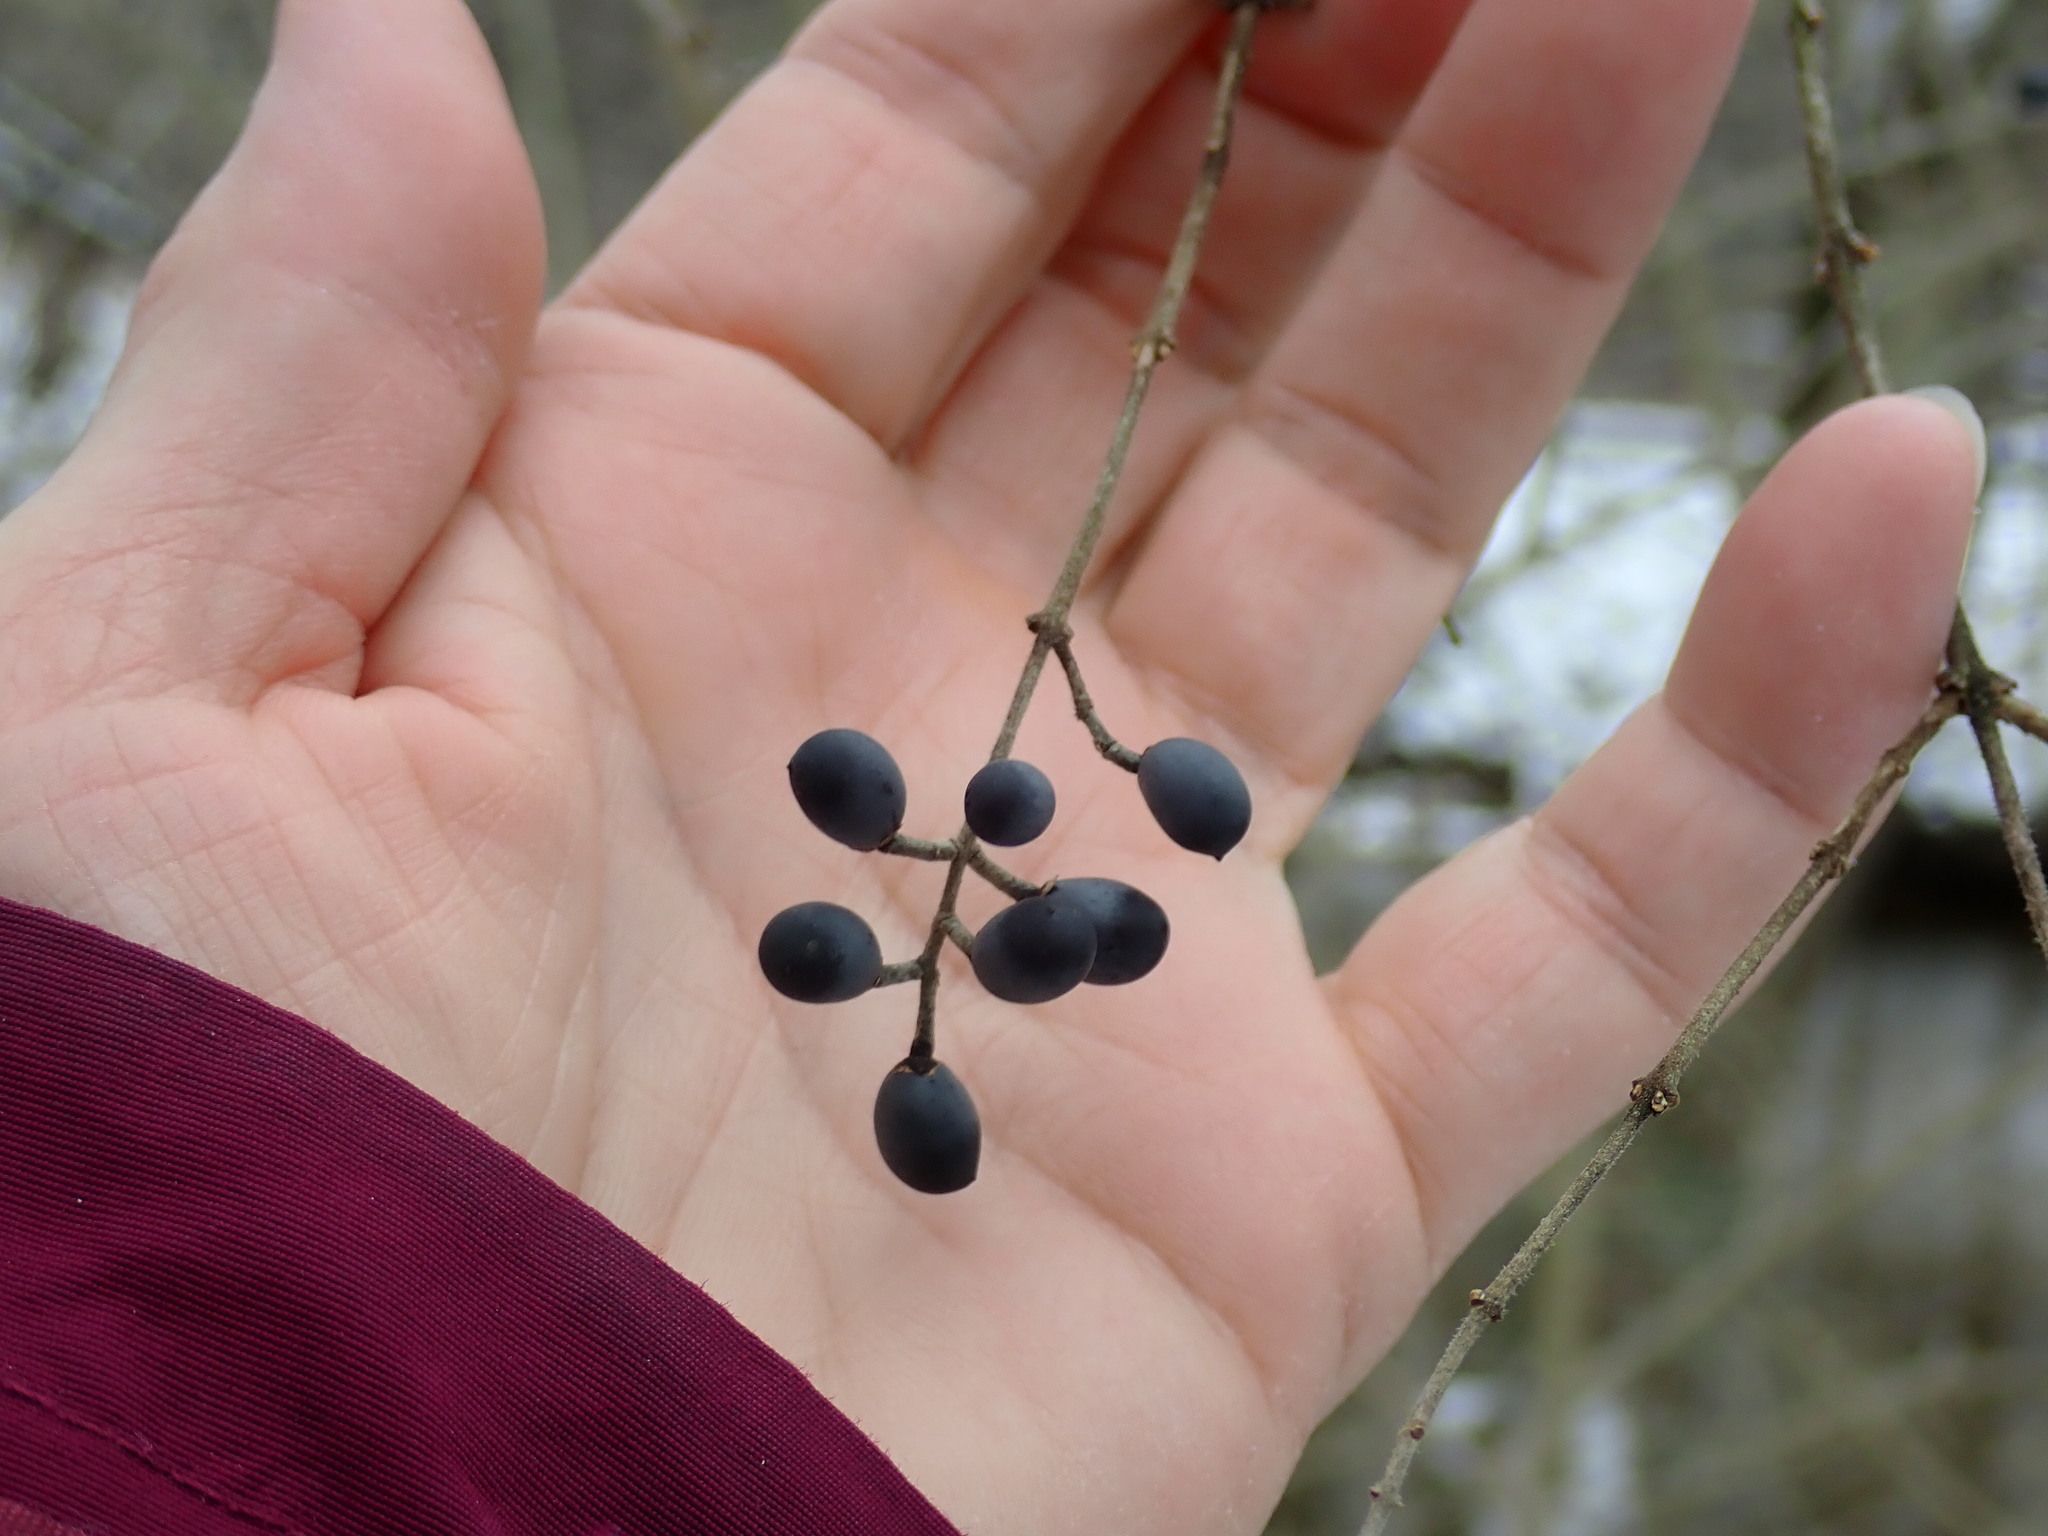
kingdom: Plantae
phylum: Tracheophyta
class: Magnoliopsida
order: Lamiales
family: Oleaceae
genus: Ligustrum
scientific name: Ligustrum obtusifolium
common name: Border privet
